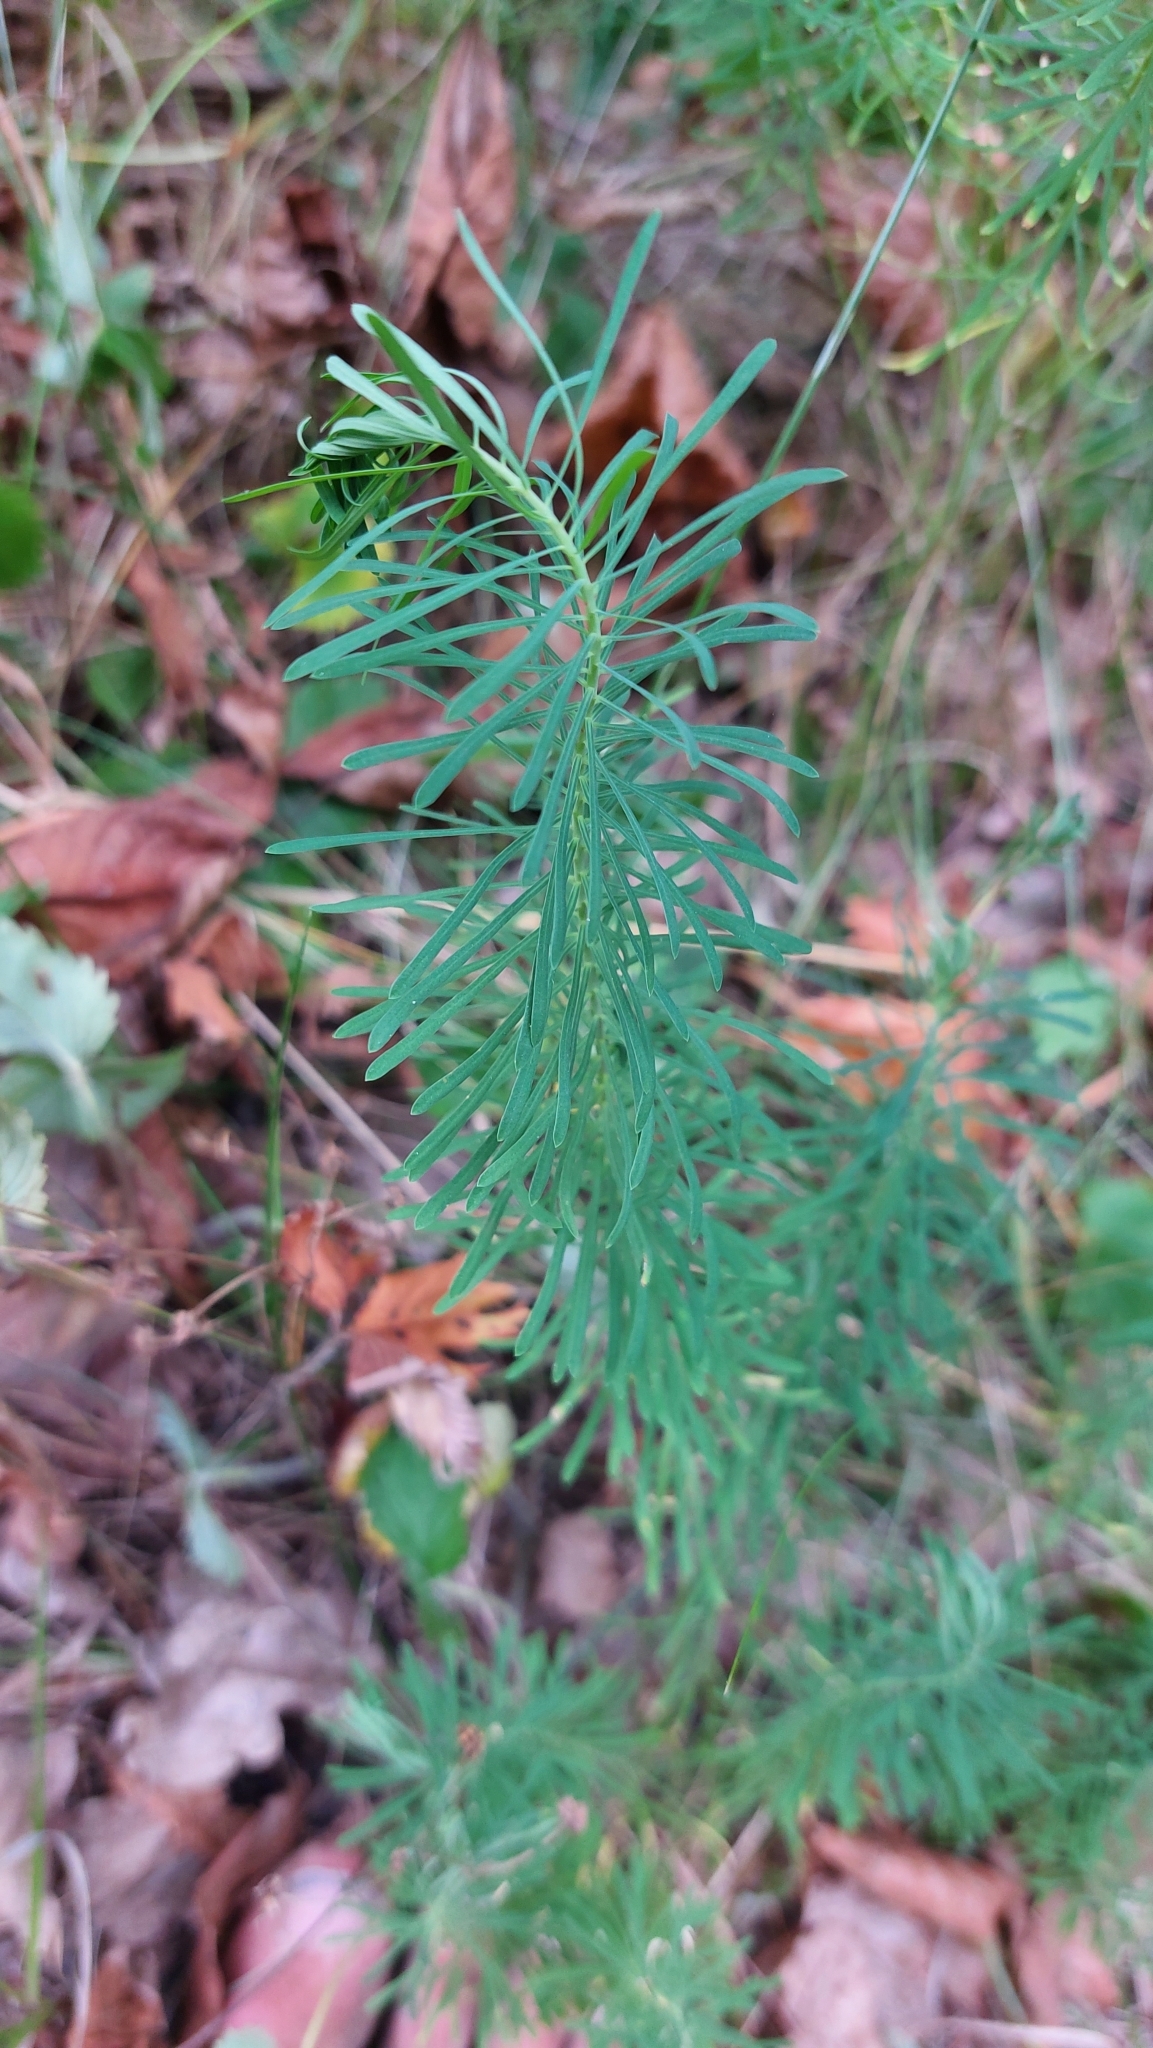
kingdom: Plantae
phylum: Tracheophyta
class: Magnoliopsida
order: Malpighiales
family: Euphorbiaceae
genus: Euphorbia
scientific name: Euphorbia cyparissias
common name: Cypress spurge
